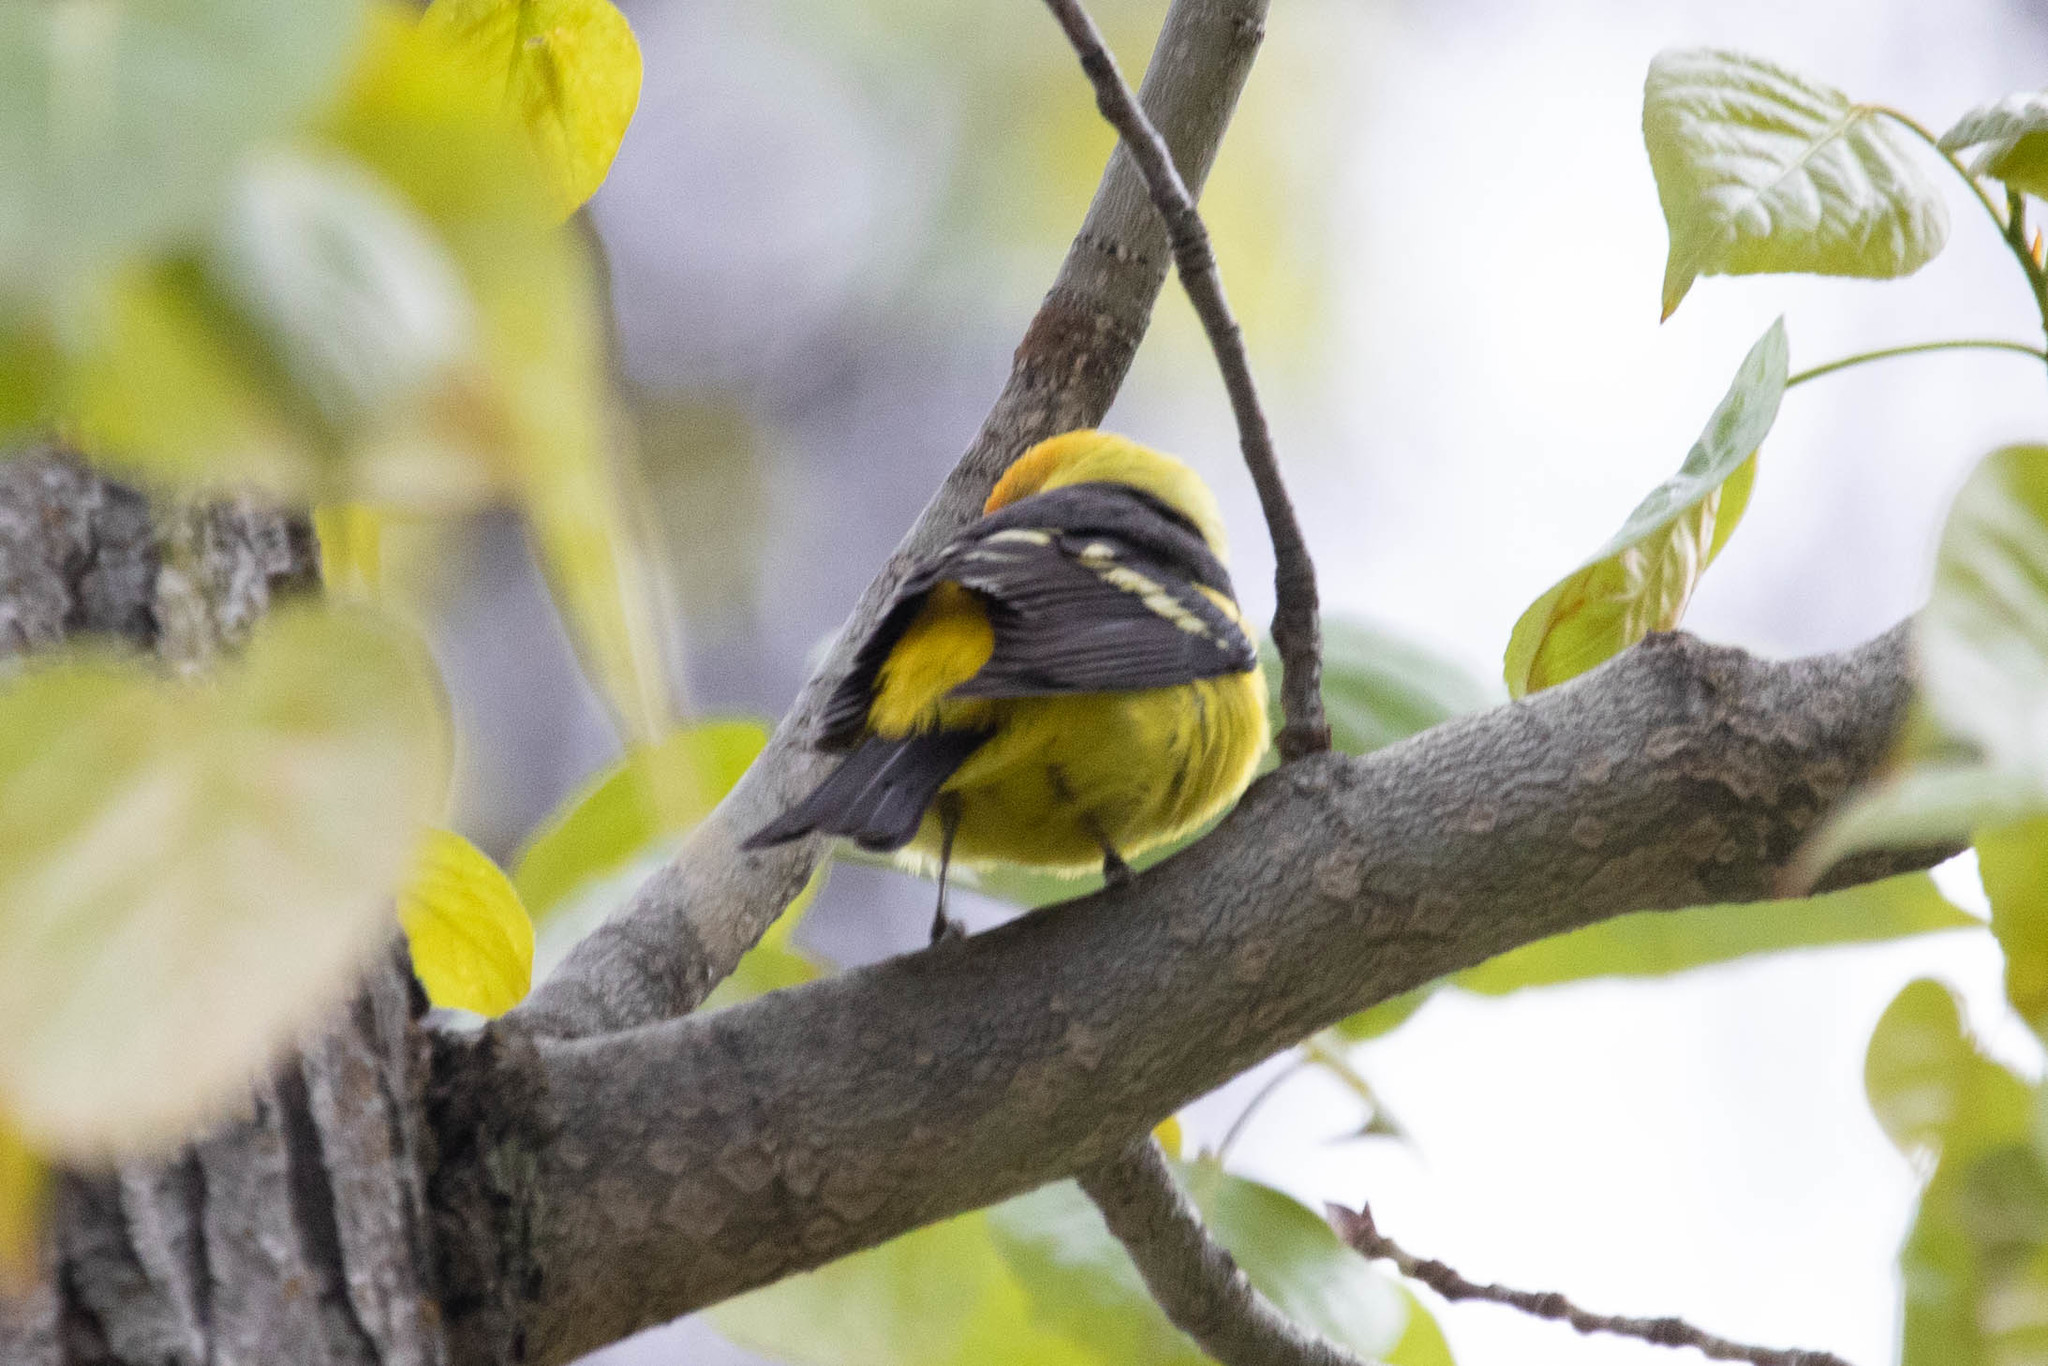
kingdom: Animalia
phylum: Chordata
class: Aves
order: Passeriformes
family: Cardinalidae
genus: Piranga
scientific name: Piranga ludoviciana
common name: Western tanager
